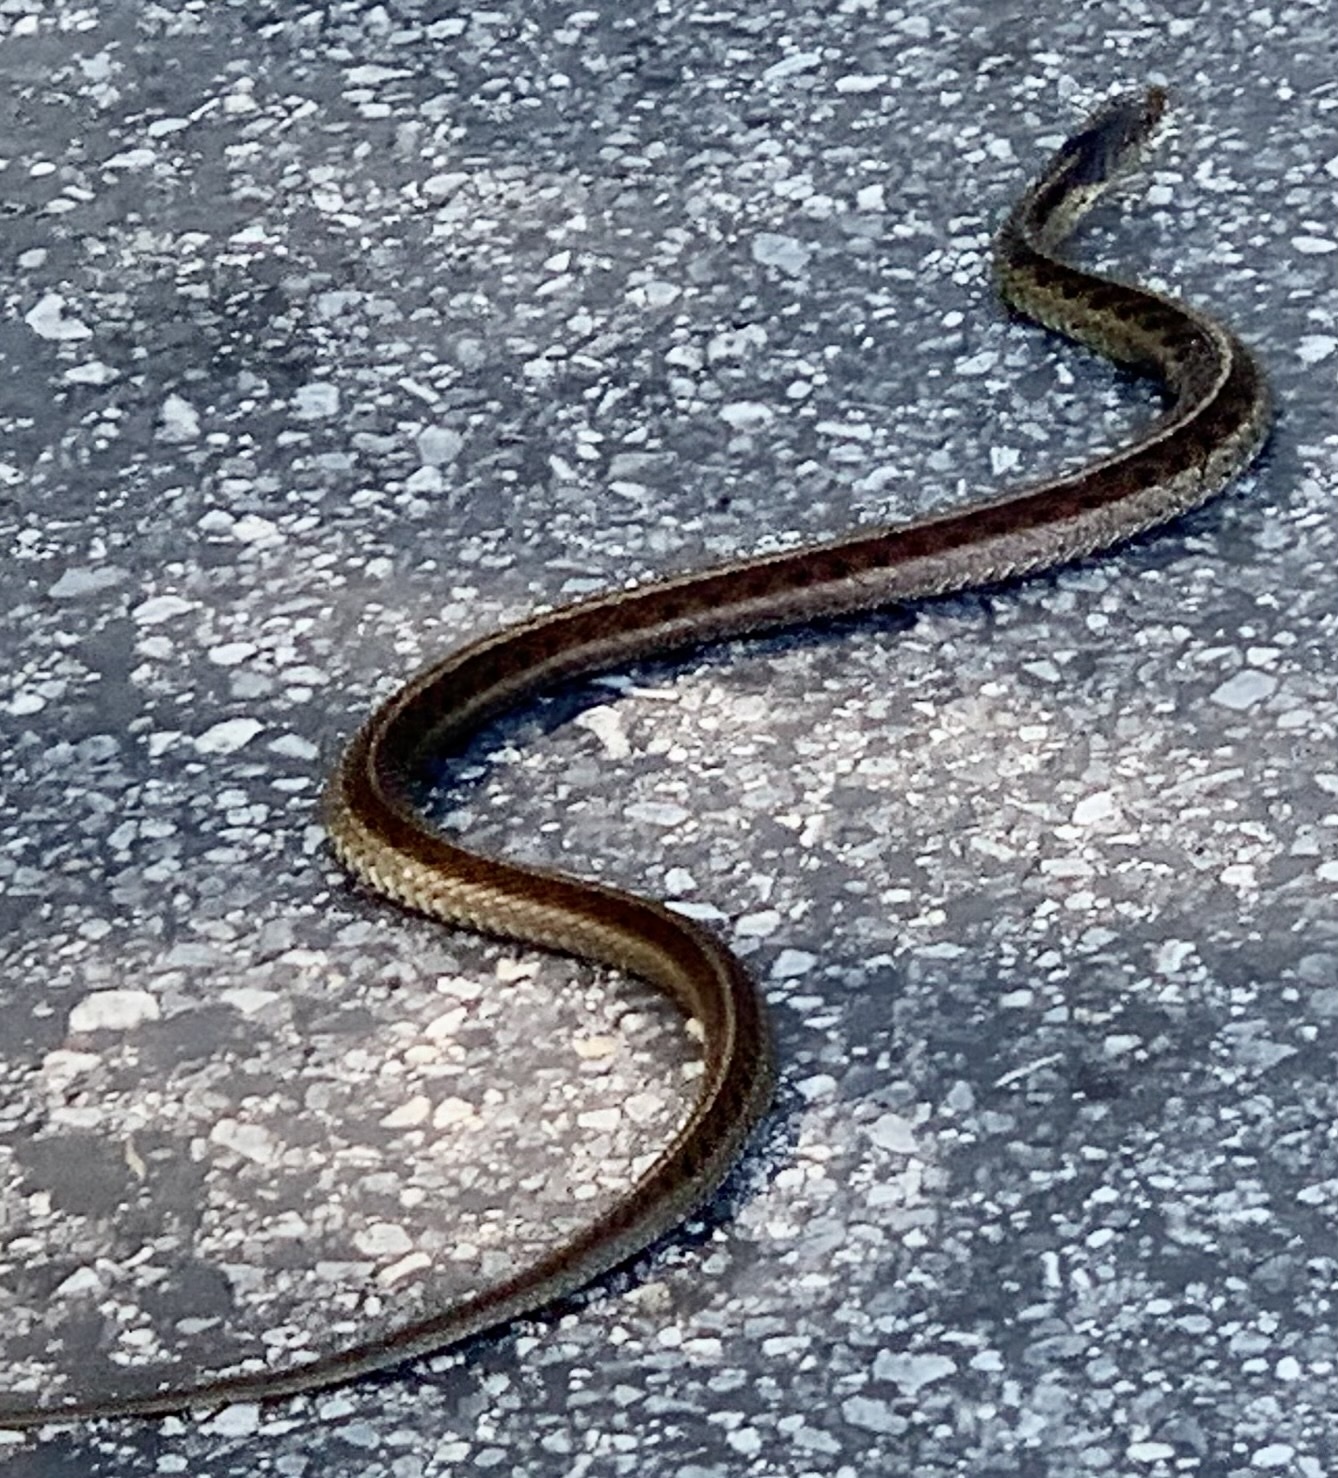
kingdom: Animalia
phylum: Chordata
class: Squamata
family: Colubridae
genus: Thamnophis
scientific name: Thamnophis sirtalis
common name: Common garter snake
